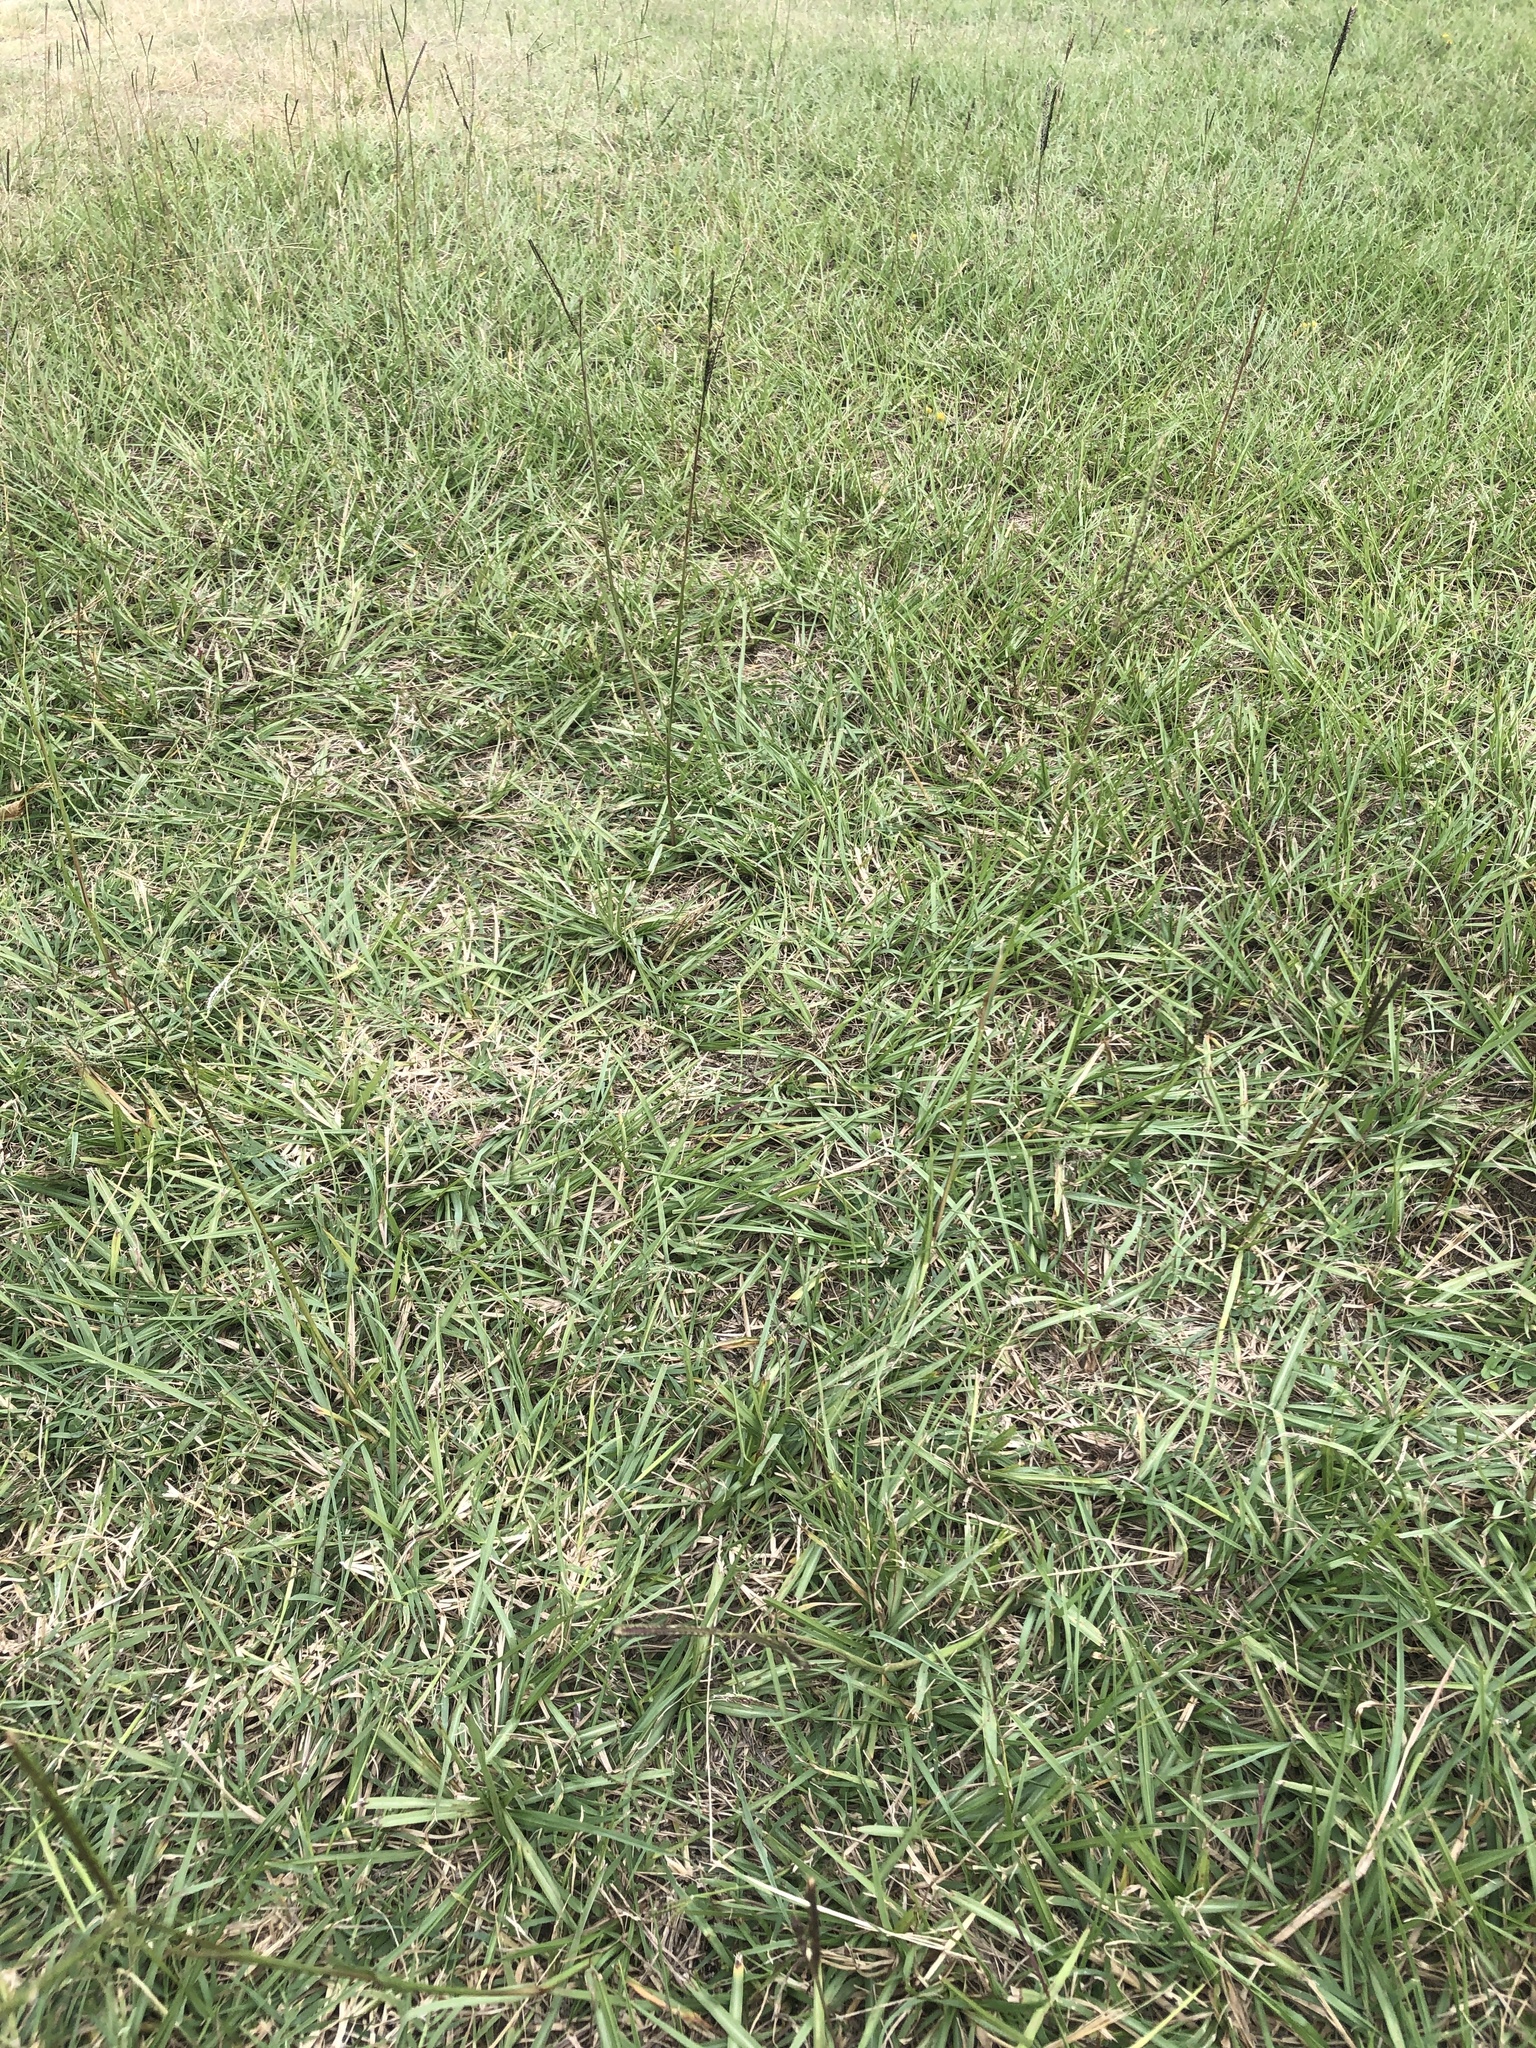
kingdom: Plantae
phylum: Tracheophyta
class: Liliopsida
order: Poales
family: Poaceae
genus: Paspalum
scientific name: Paspalum notatum
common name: Bahiagrass
